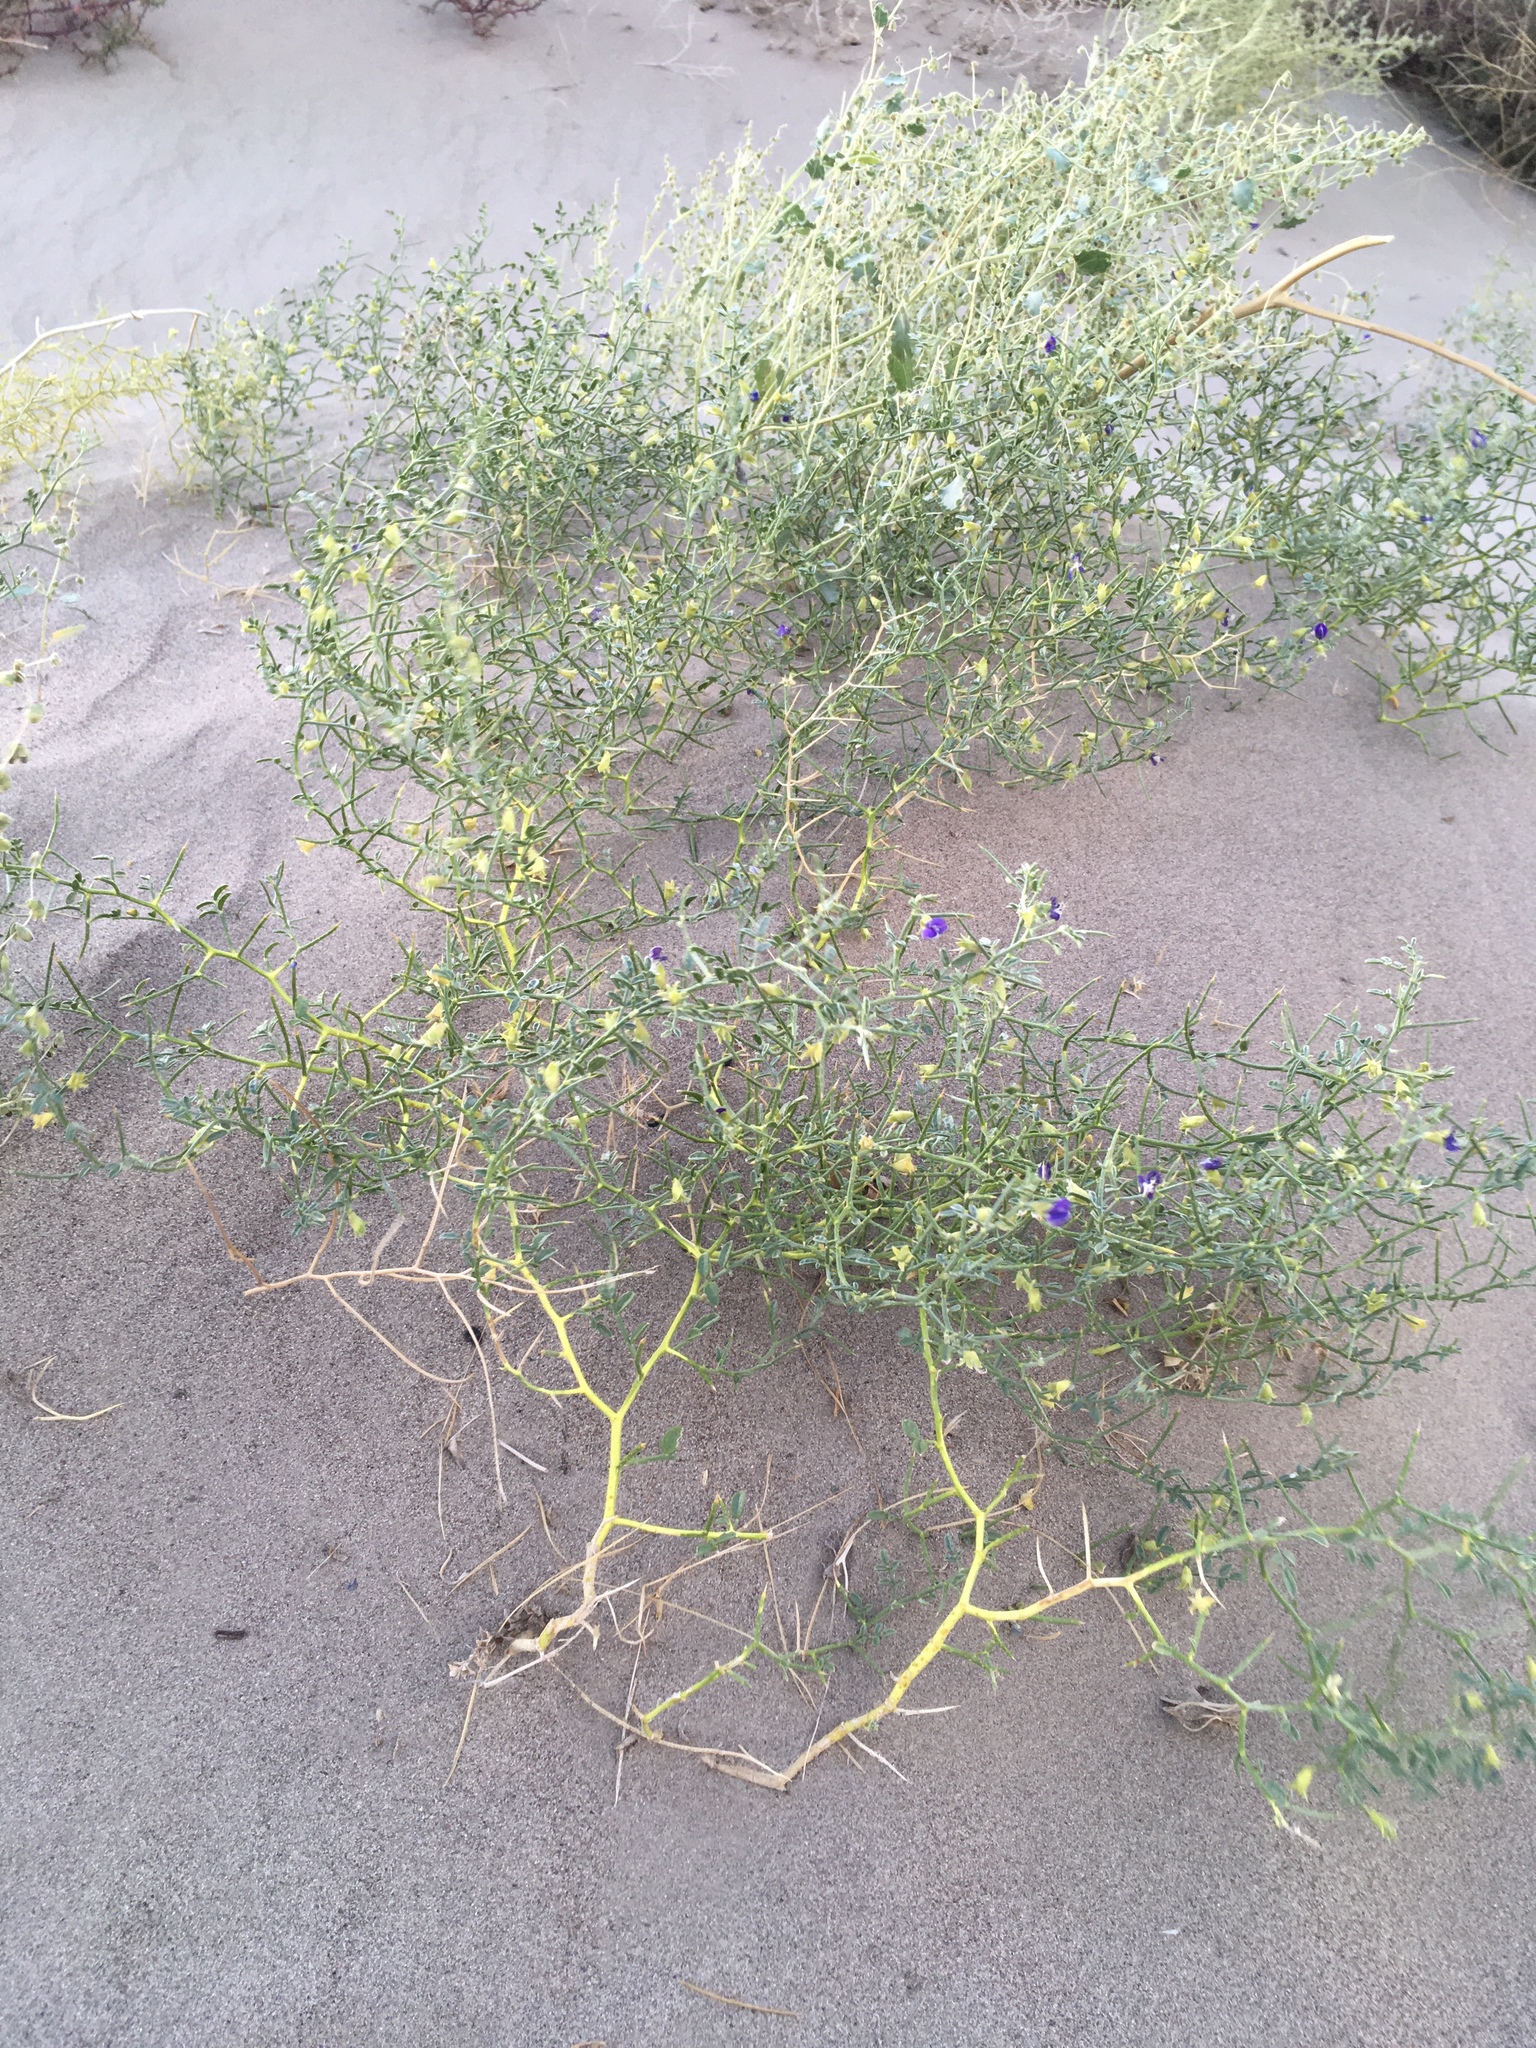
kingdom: Plantae
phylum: Tracheophyta
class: Magnoliopsida
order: Fabales
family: Fabaceae
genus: Psorothamnus
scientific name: Psorothamnus kingii
